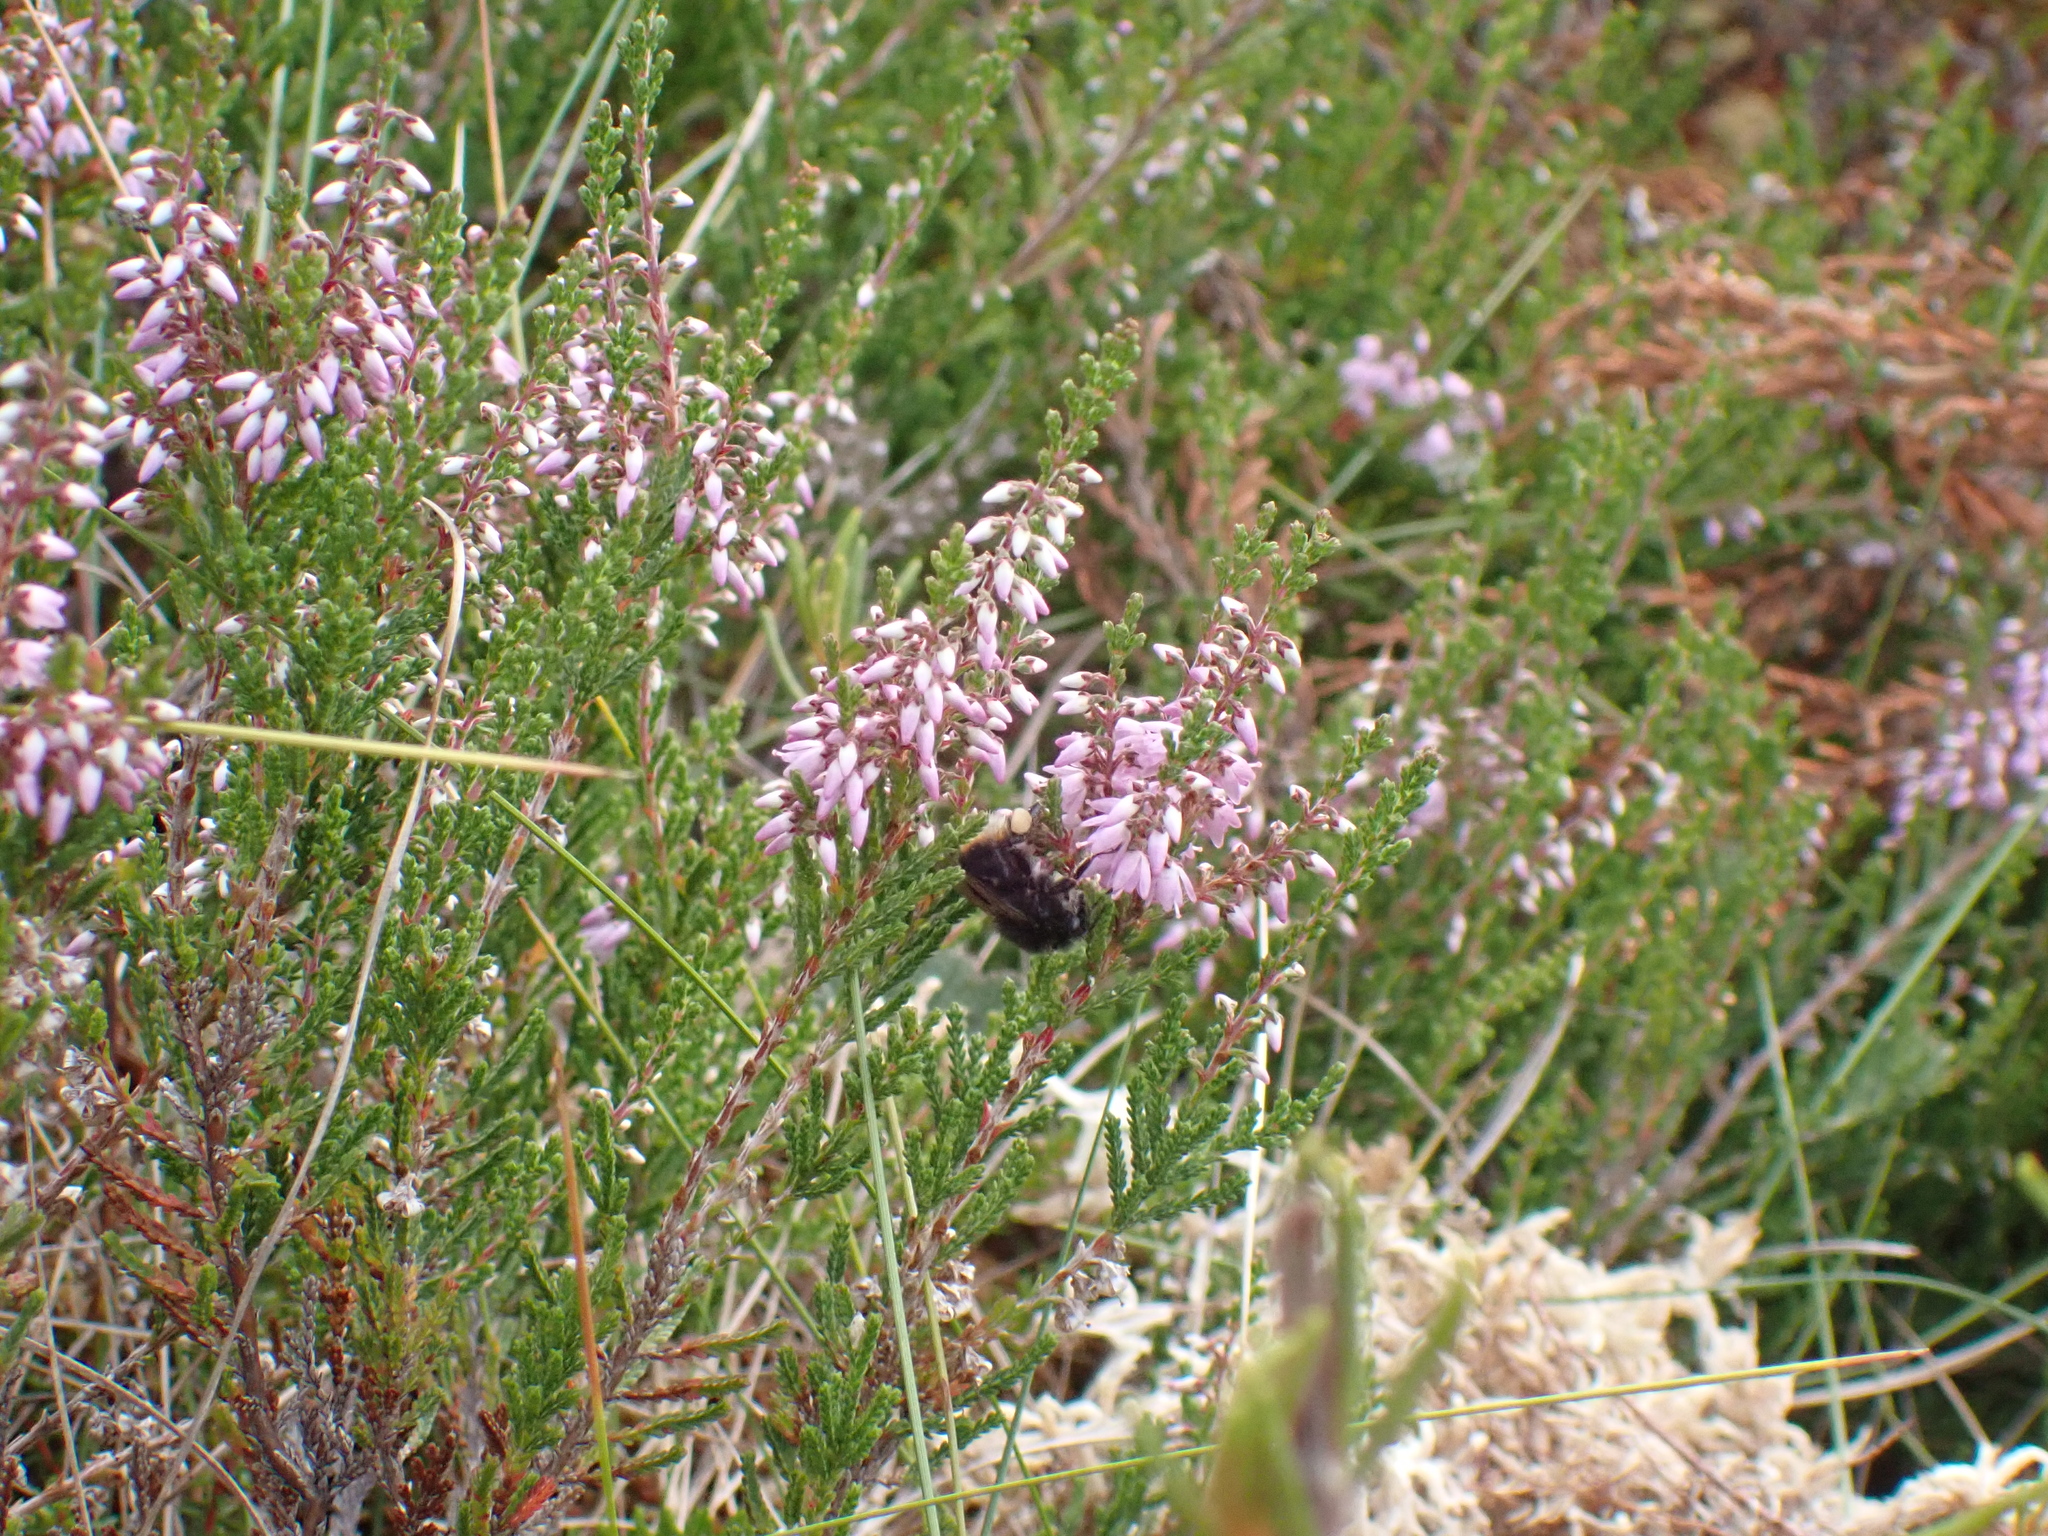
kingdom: Plantae
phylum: Tracheophyta
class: Magnoliopsida
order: Ericales
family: Ericaceae
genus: Calluna
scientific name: Calluna vulgaris
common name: Heather
